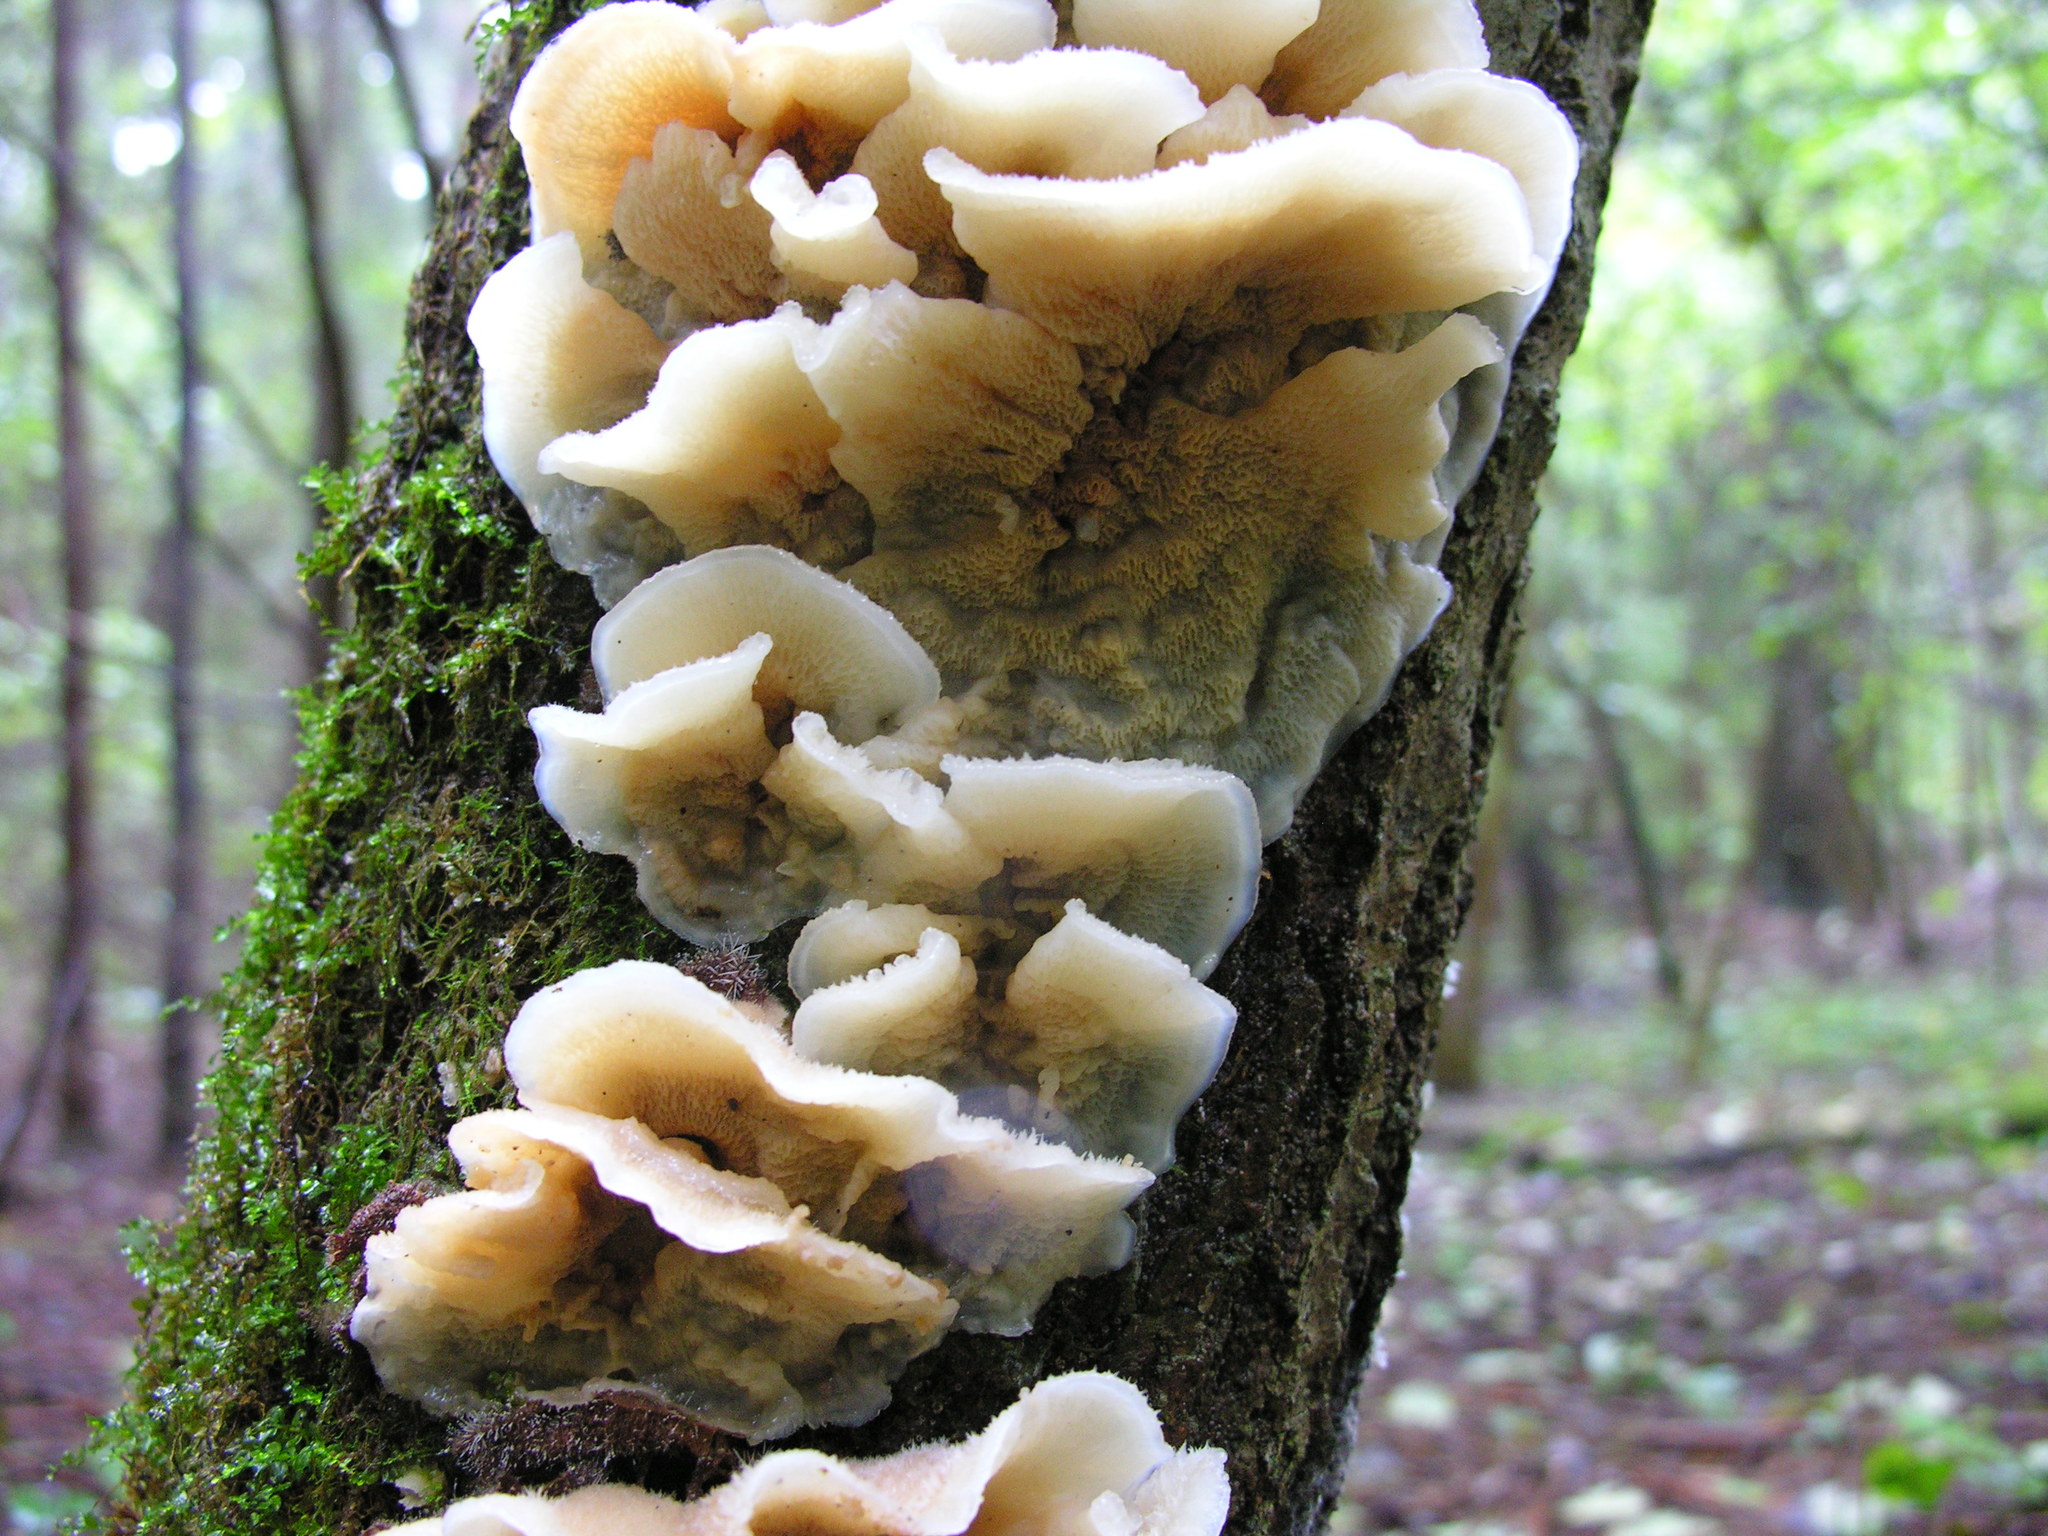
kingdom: Fungi
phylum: Basidiomycota
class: Agaricomycetes
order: Polyporales
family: Meruliaceae
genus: Phlebia
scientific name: Phlebia tremellosa
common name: Jelly rot
